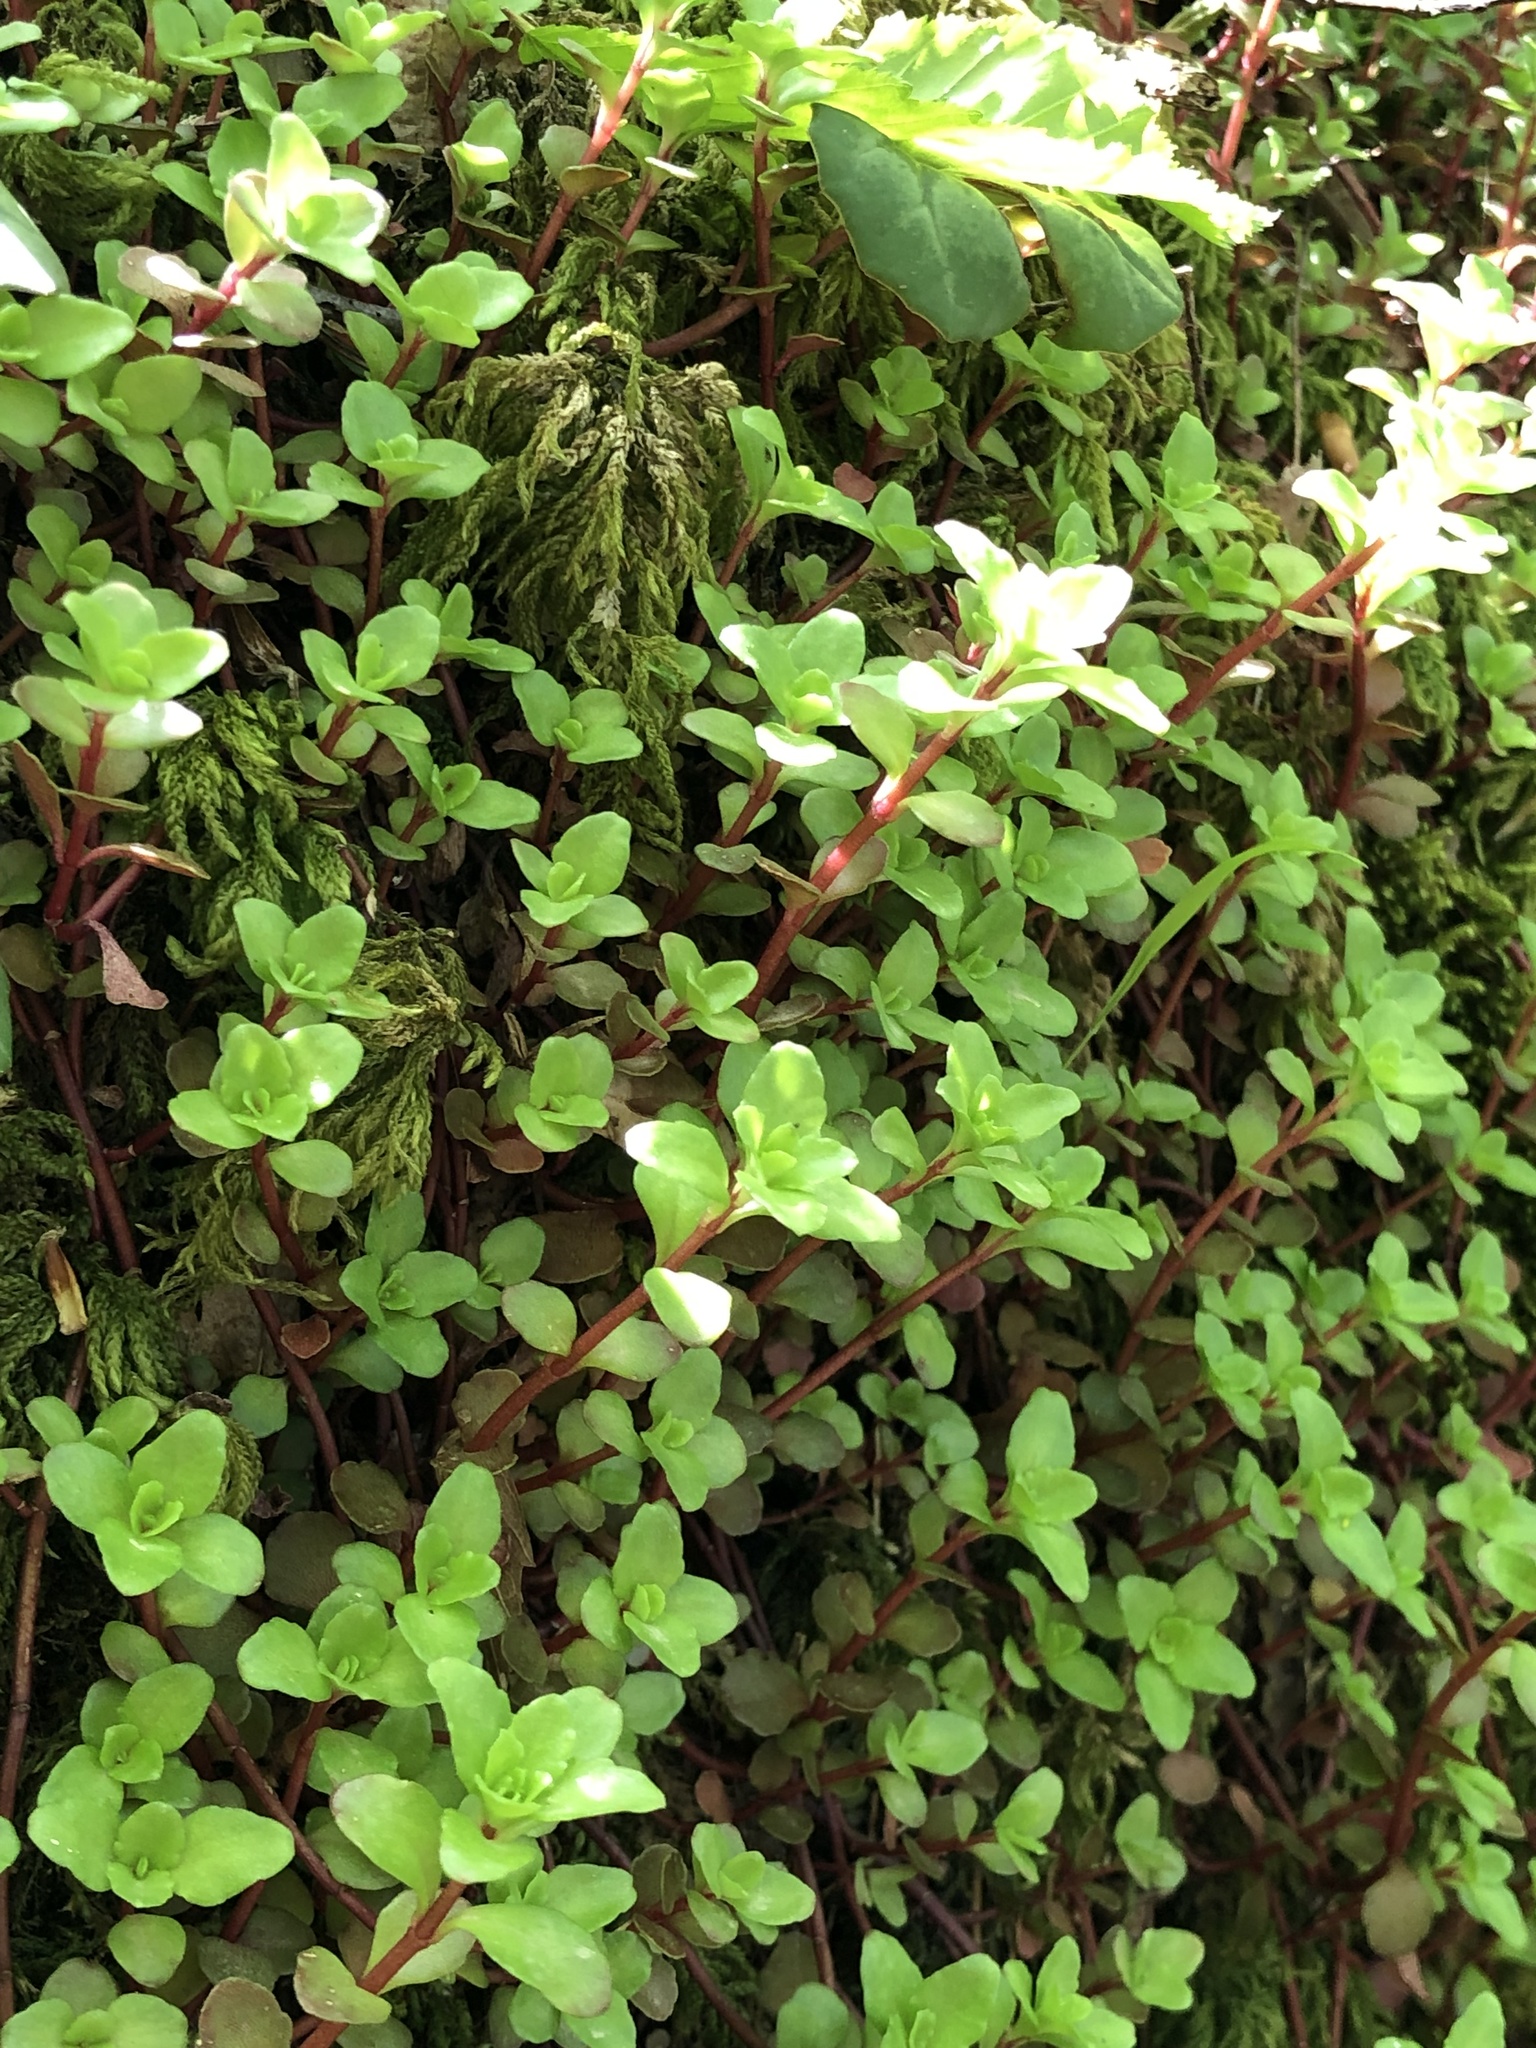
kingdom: Plantae
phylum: Tracheophyta
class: Magnoliopsida
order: Saxifragales
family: Crassulaceae
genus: Phedimus
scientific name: Phedimus stolonifer
